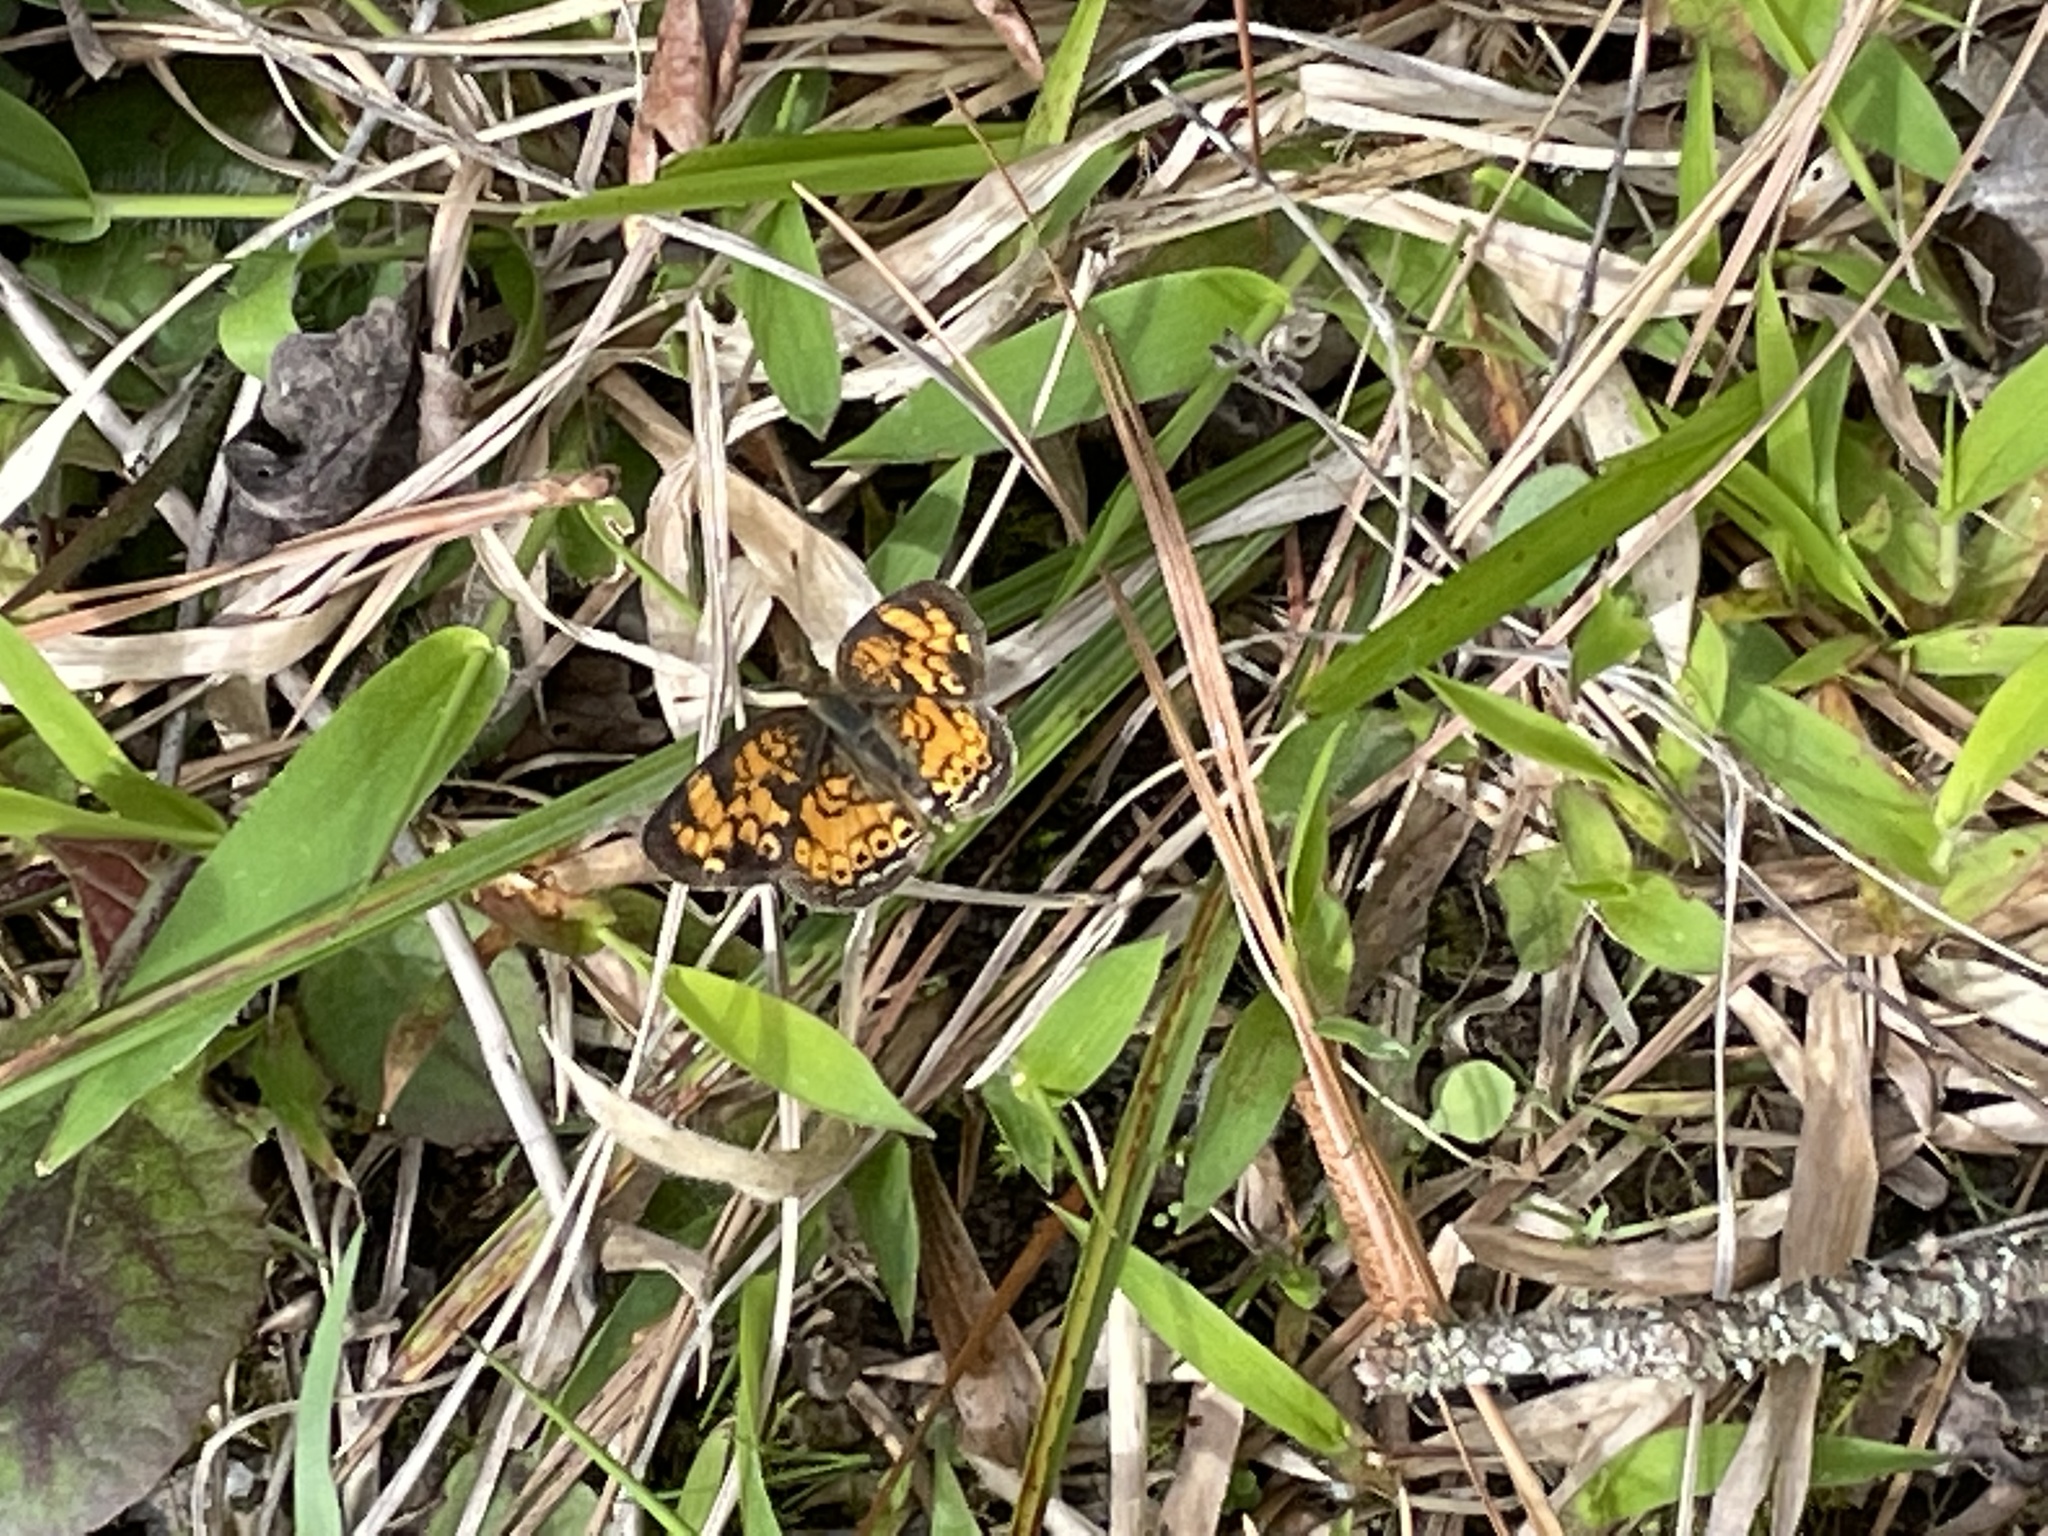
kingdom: Animalia
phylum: Arthropoda
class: Insecta
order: Lepidoptera
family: Nymphalidae
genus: Phyciodes
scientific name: Phyciodes tharos
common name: Pearl crescent
